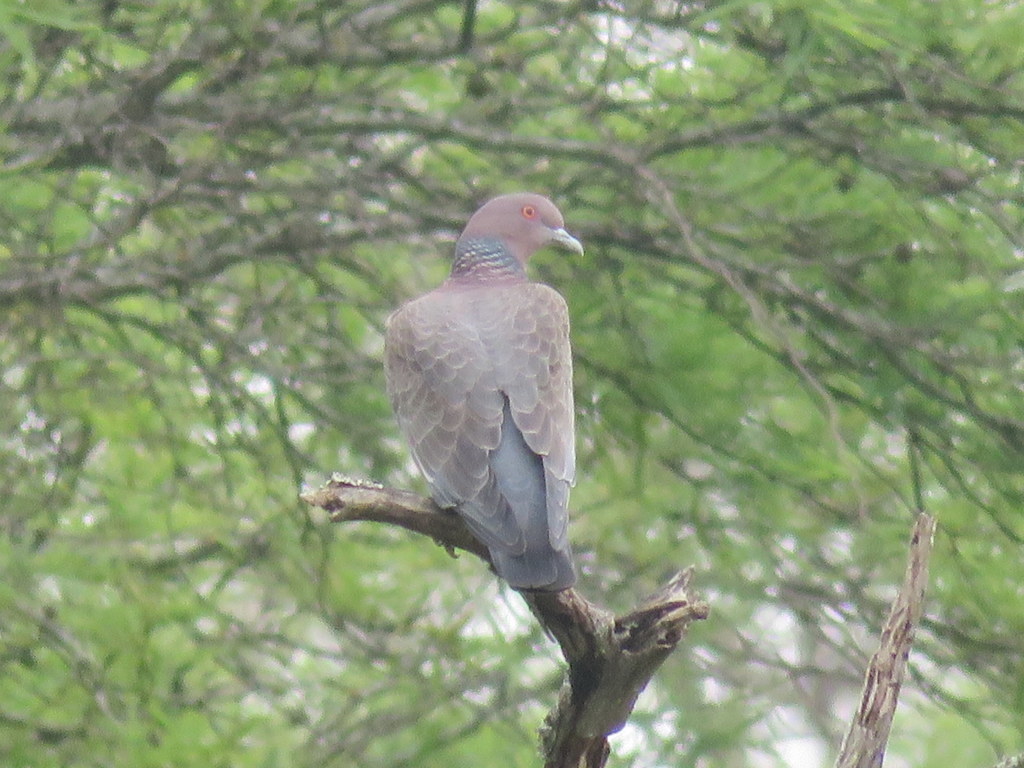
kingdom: Animalia
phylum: Chordata
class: Aves
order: Columbiformes
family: Columbidae
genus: Patagioenas
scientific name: Patagioenas picazuro
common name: Picazuro pigeon
